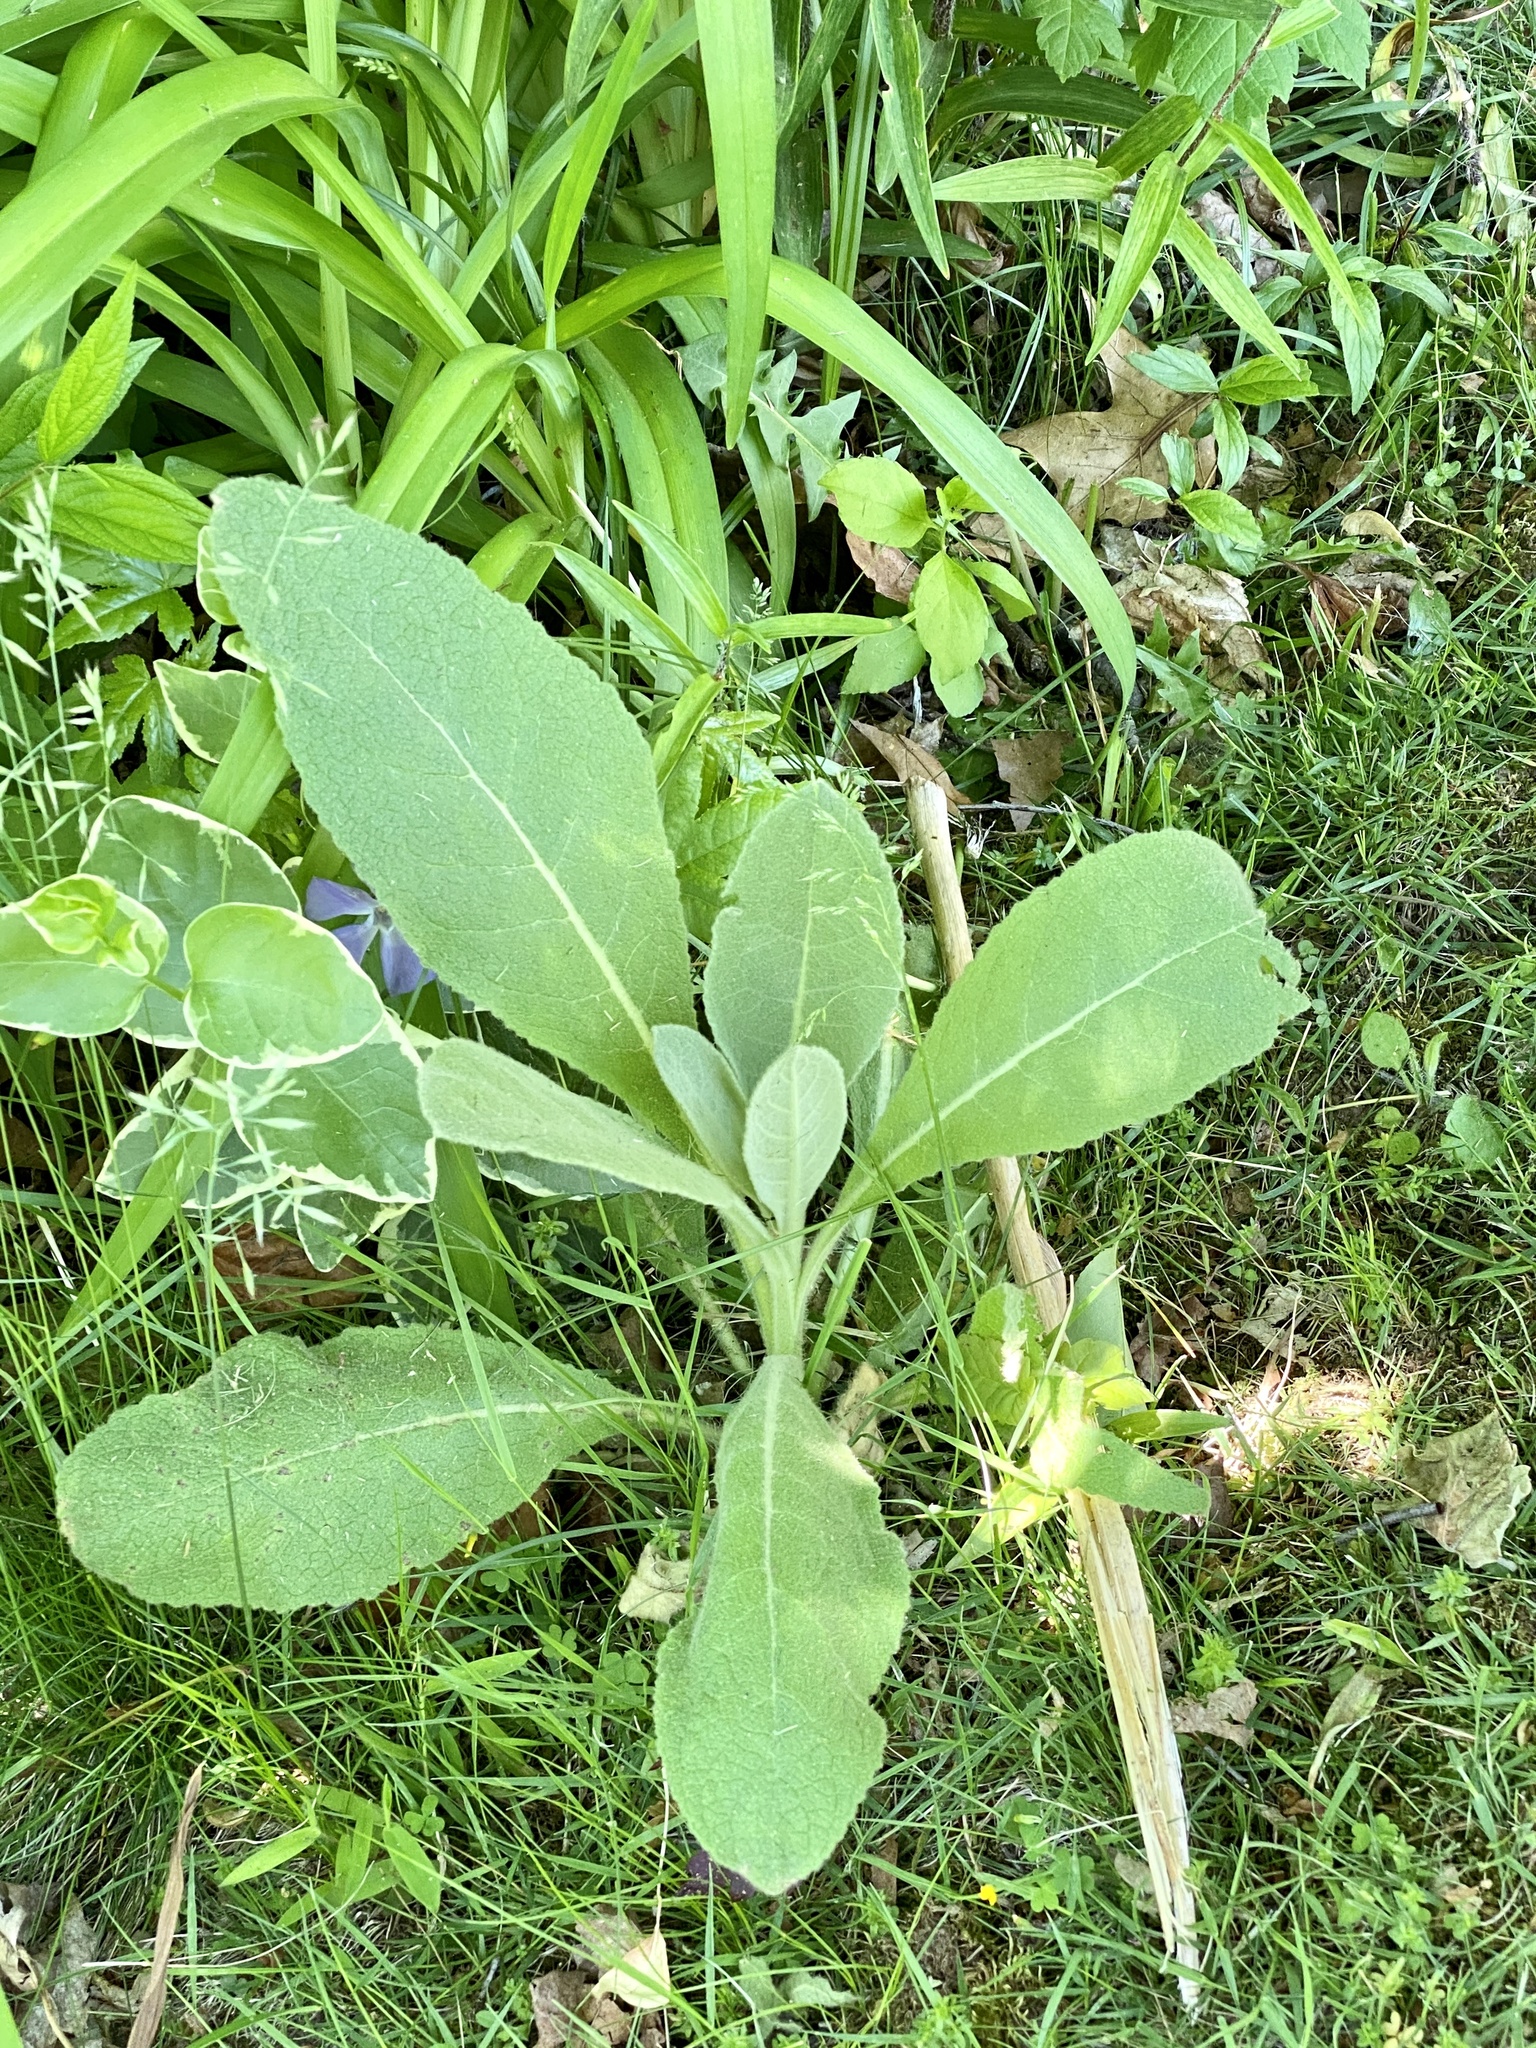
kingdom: Plantae
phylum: Tracheophyta
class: Magnoliopsida
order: Lamiales
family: Scrophulariaceae
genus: Verbascum
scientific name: Verbascum thapsus
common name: Common mullein
